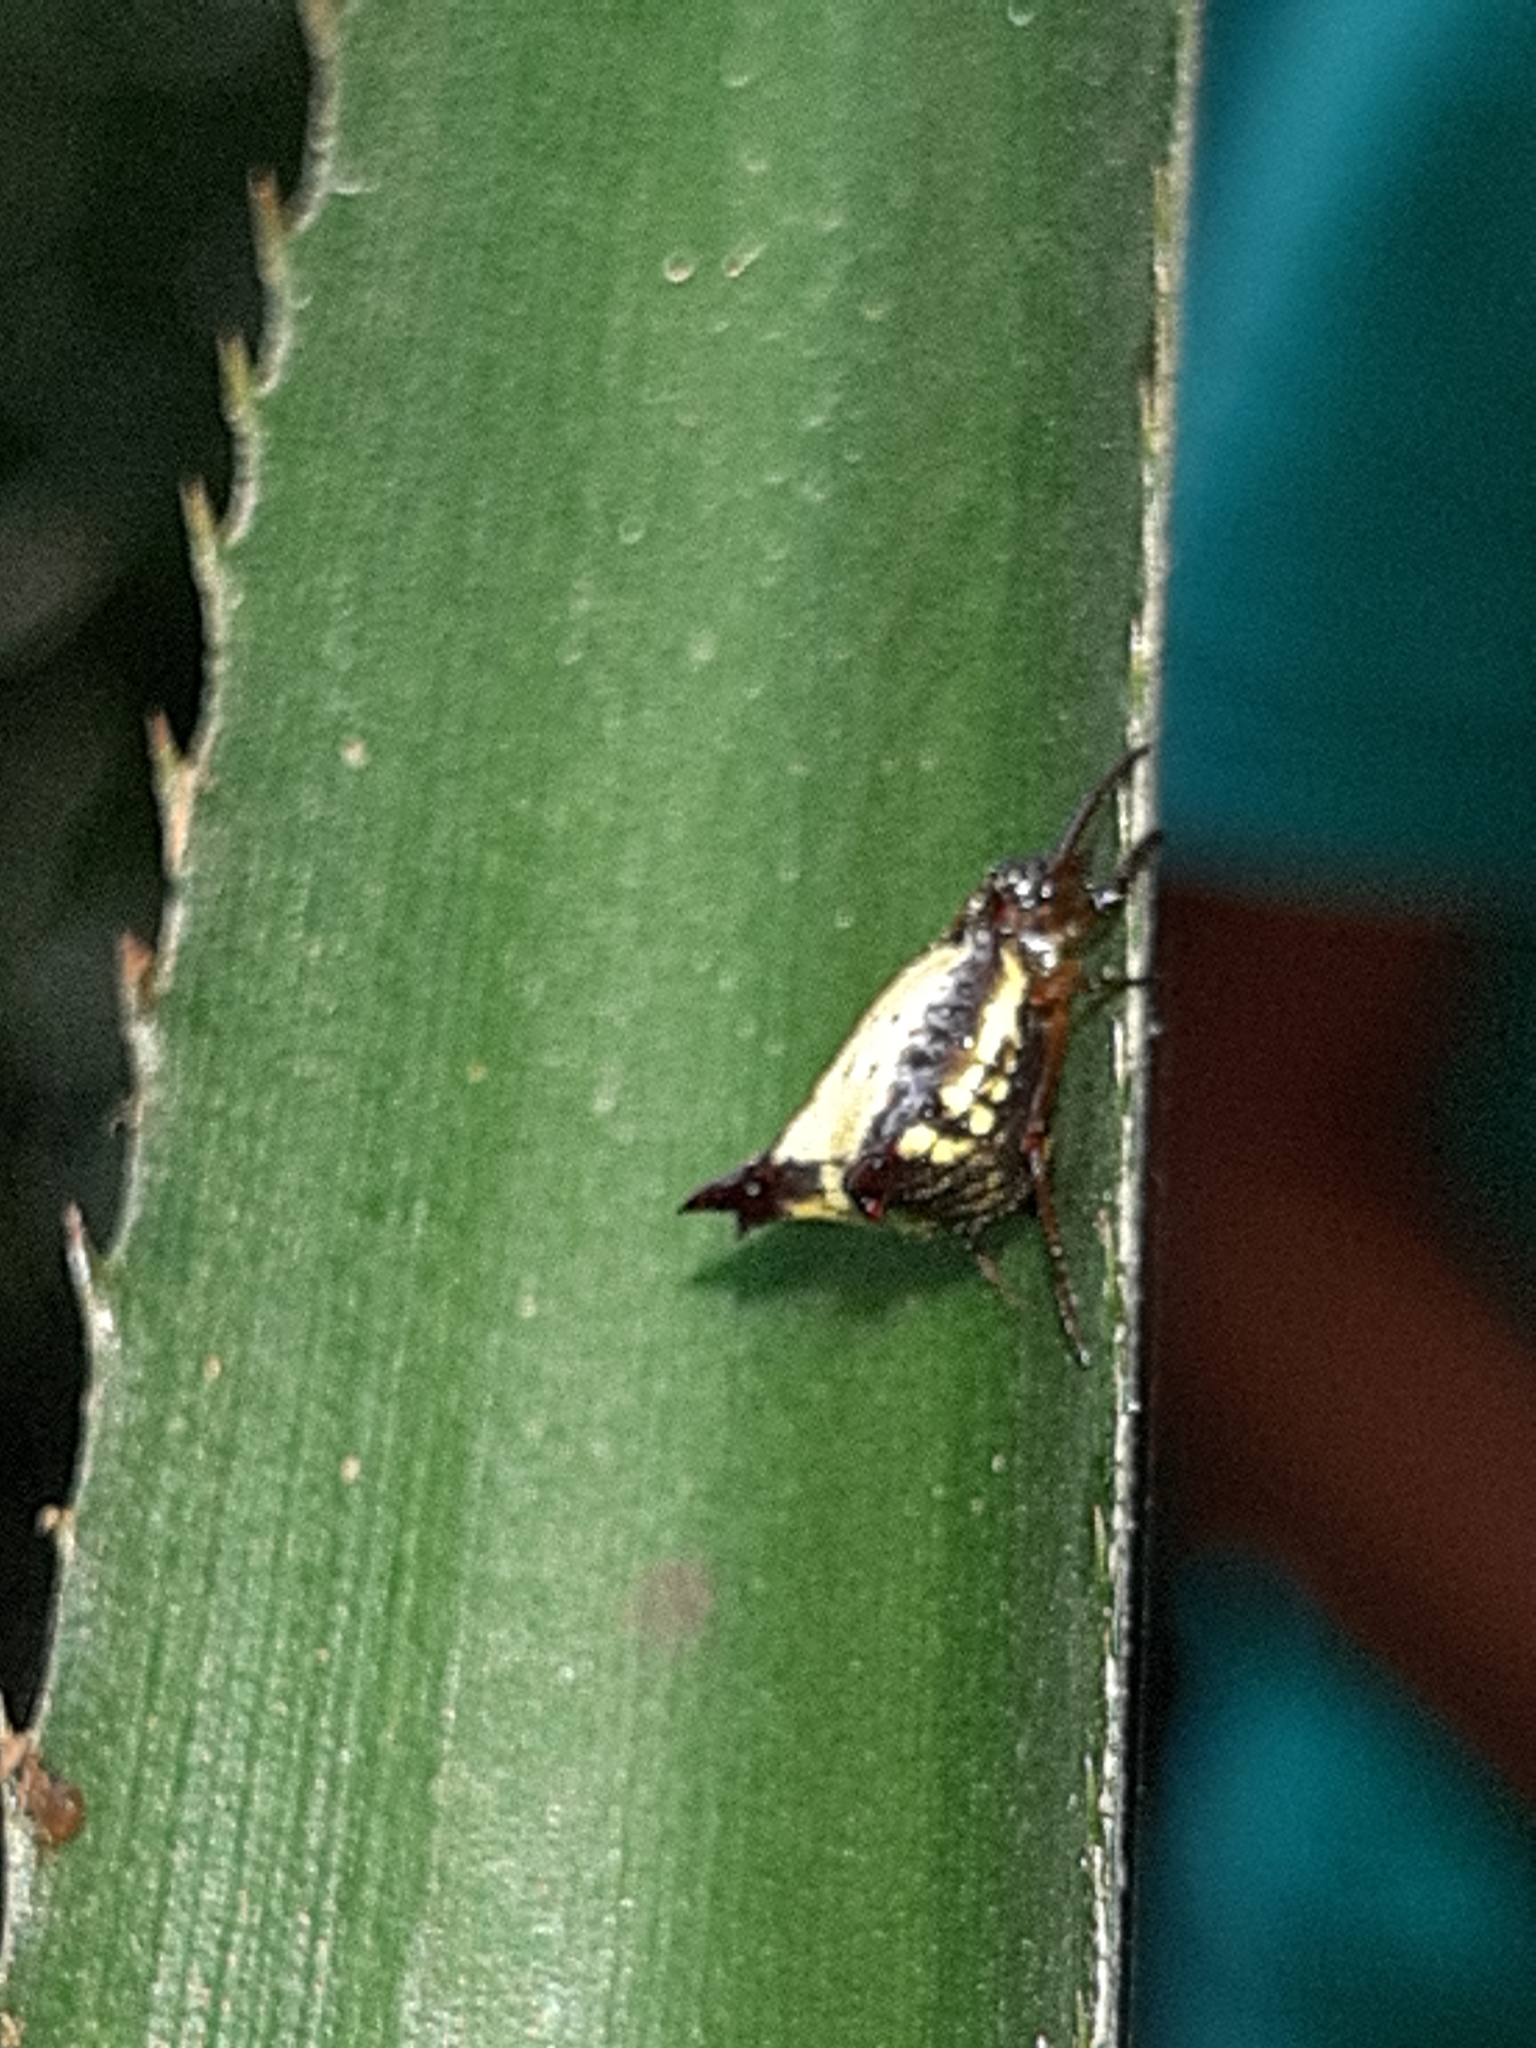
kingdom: Animalia
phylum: Arthropoda
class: Arachnida
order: Araneae
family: Araneidae
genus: Micrathena
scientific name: Micrathena plana
